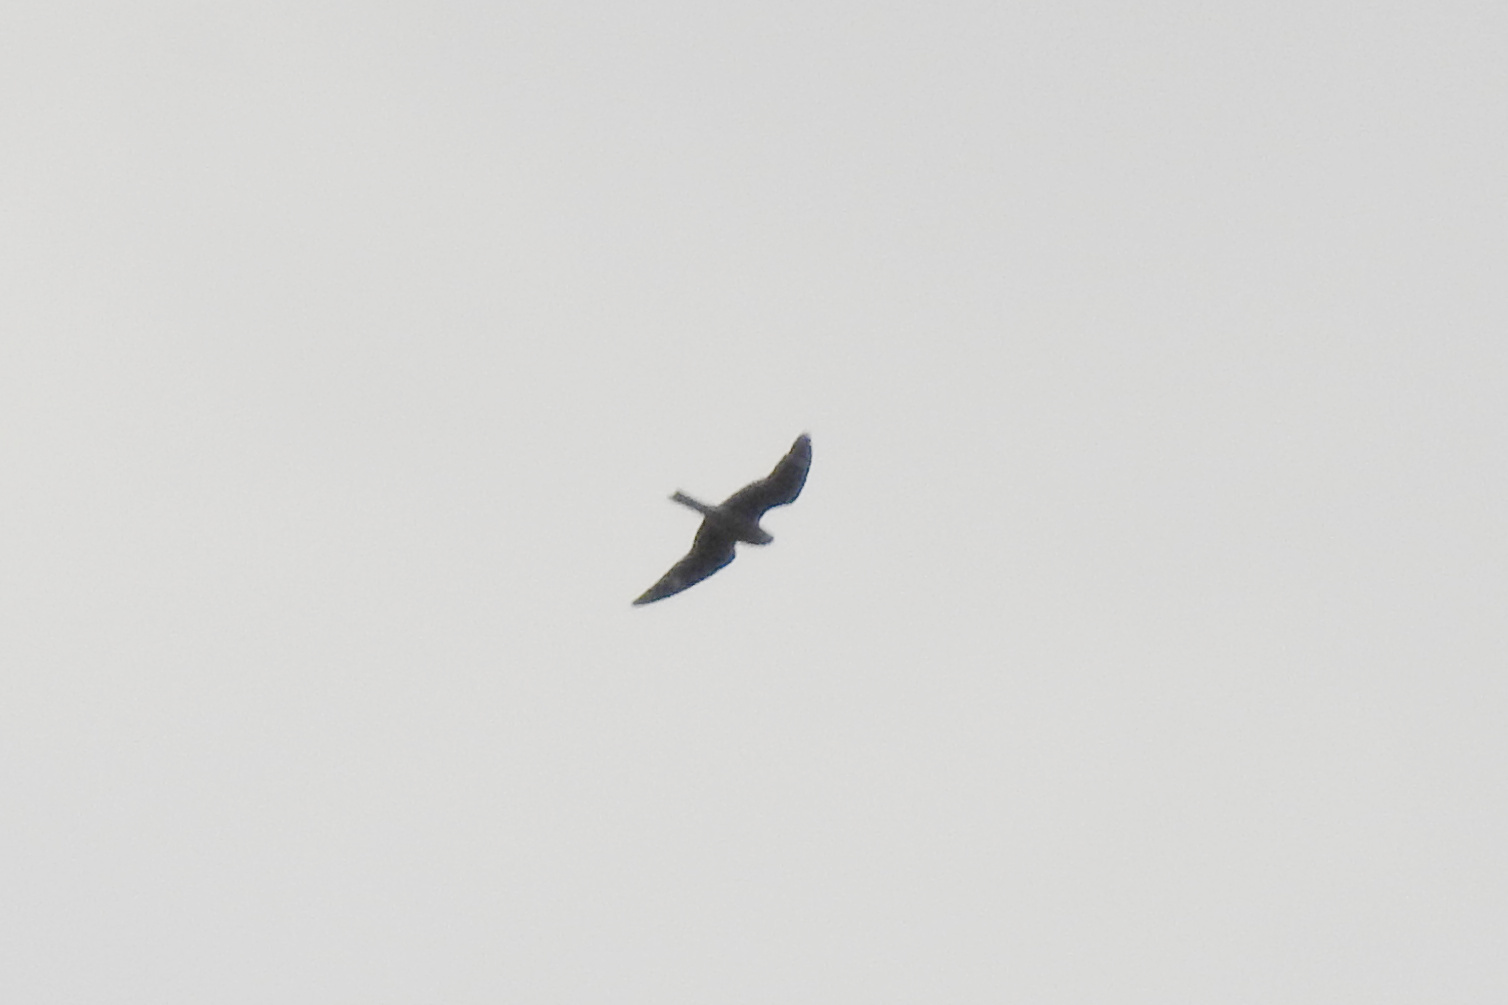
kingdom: Animalia
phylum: Chordata
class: Aves
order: Caprimulgiformes
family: Caprimulgidae
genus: Chordeiles
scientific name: Chordeiles minor
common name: Common nighthawk
